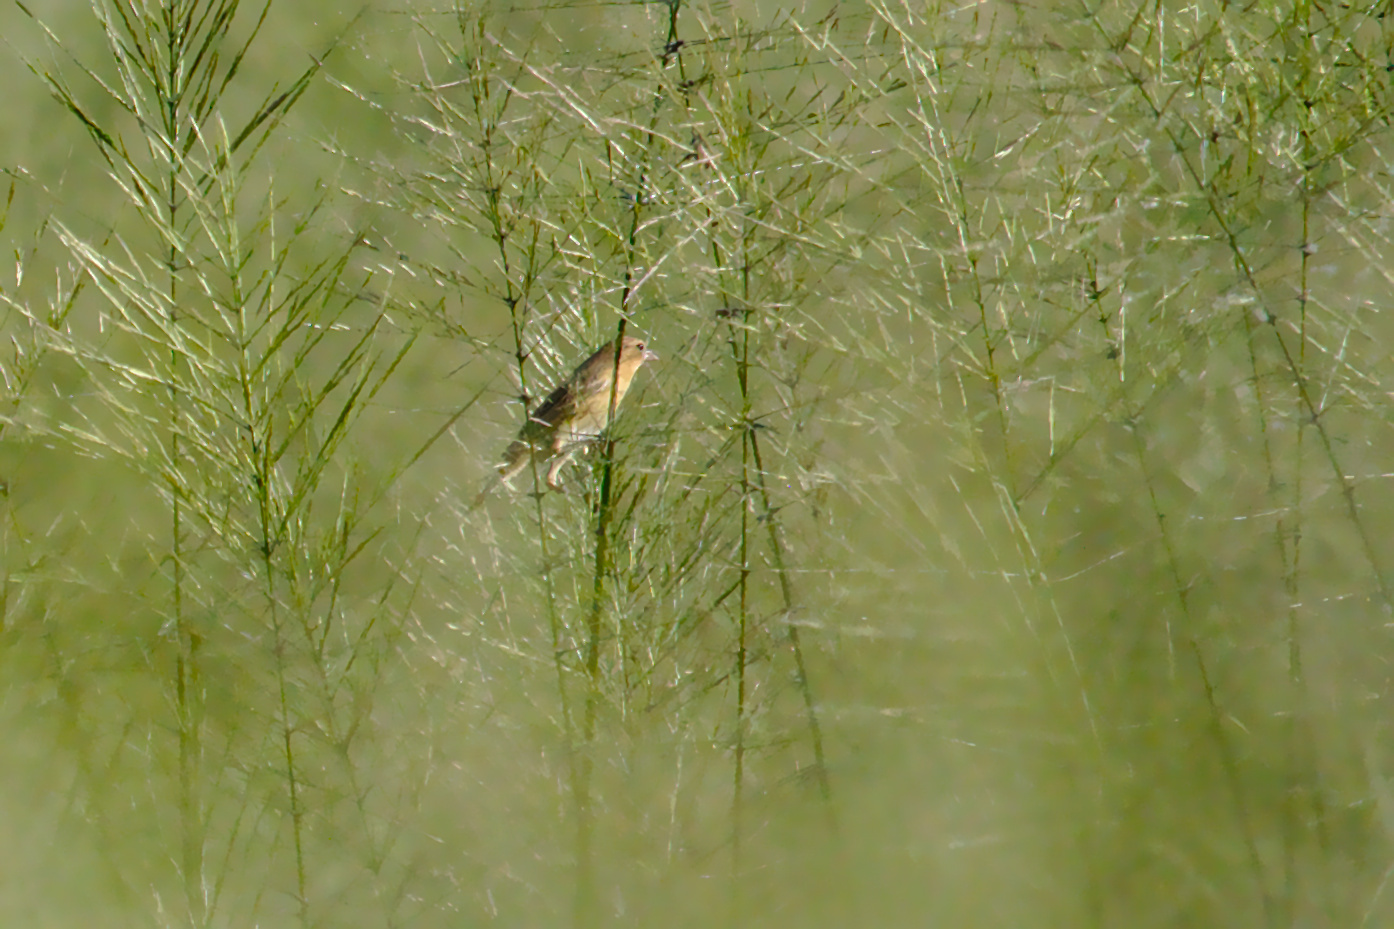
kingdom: Animalia
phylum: Chordata
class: Aves
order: Passeriformes
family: Icteridae
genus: Dolichonyx
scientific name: Dolichonyx oryzivorus
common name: Bobolink
